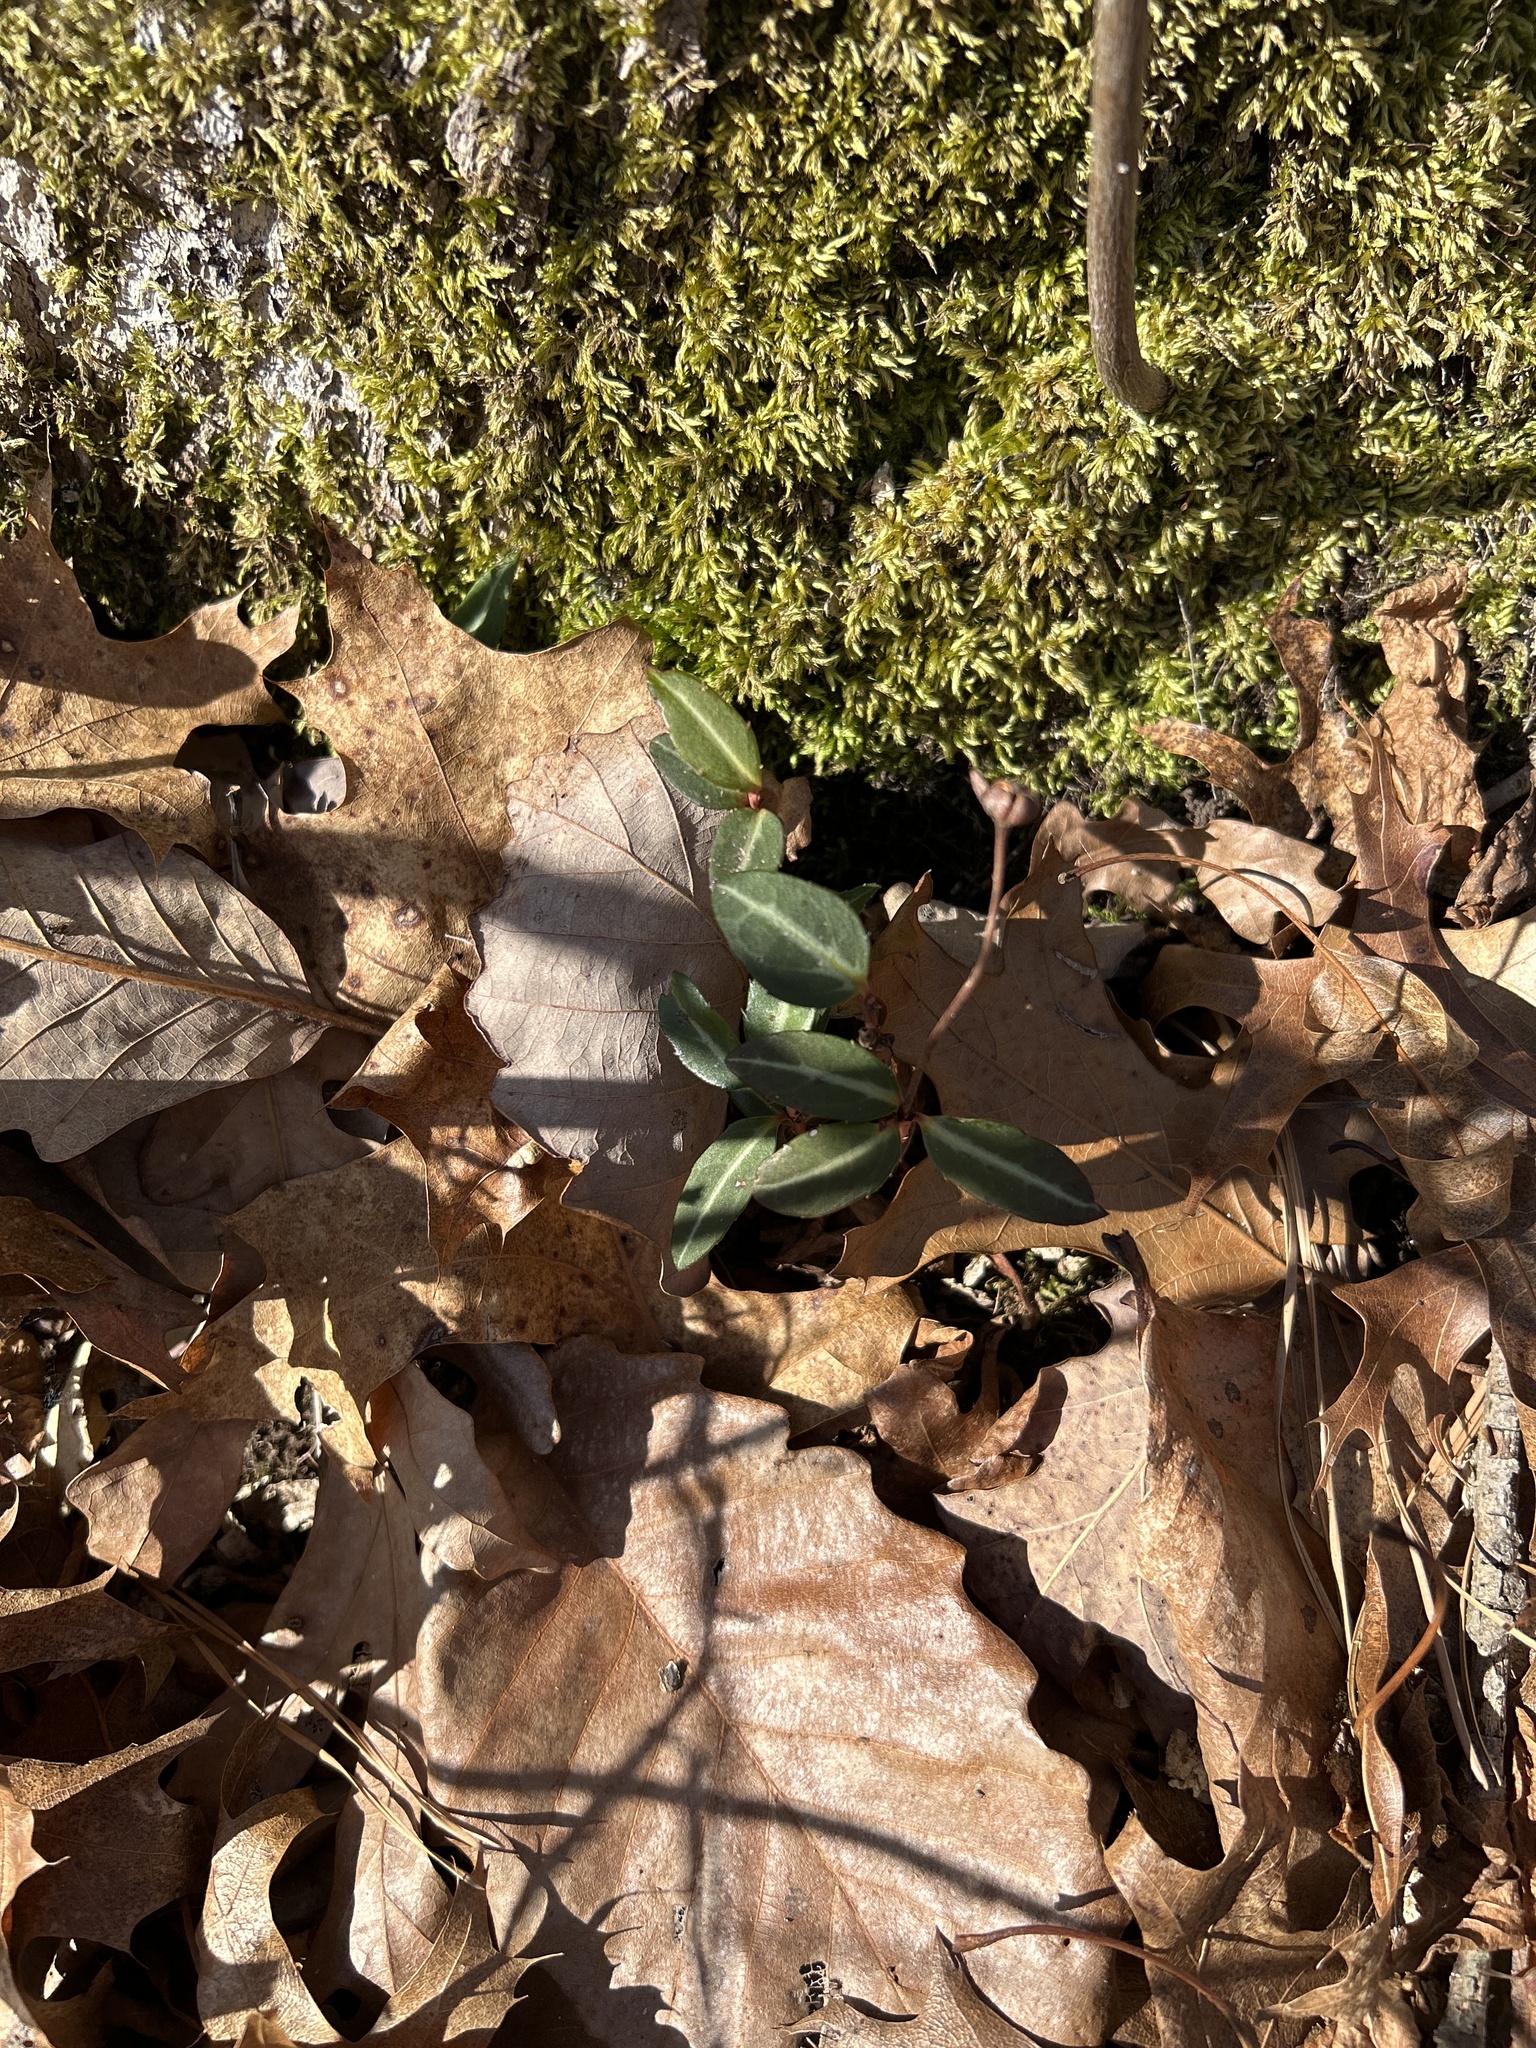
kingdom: Plantae
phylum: Tracheophyta
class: Magnoliopsida
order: Ericales
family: Ericaceae
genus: Chimaphila
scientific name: Chimaphila maculata
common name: Spotted pipsissewa
